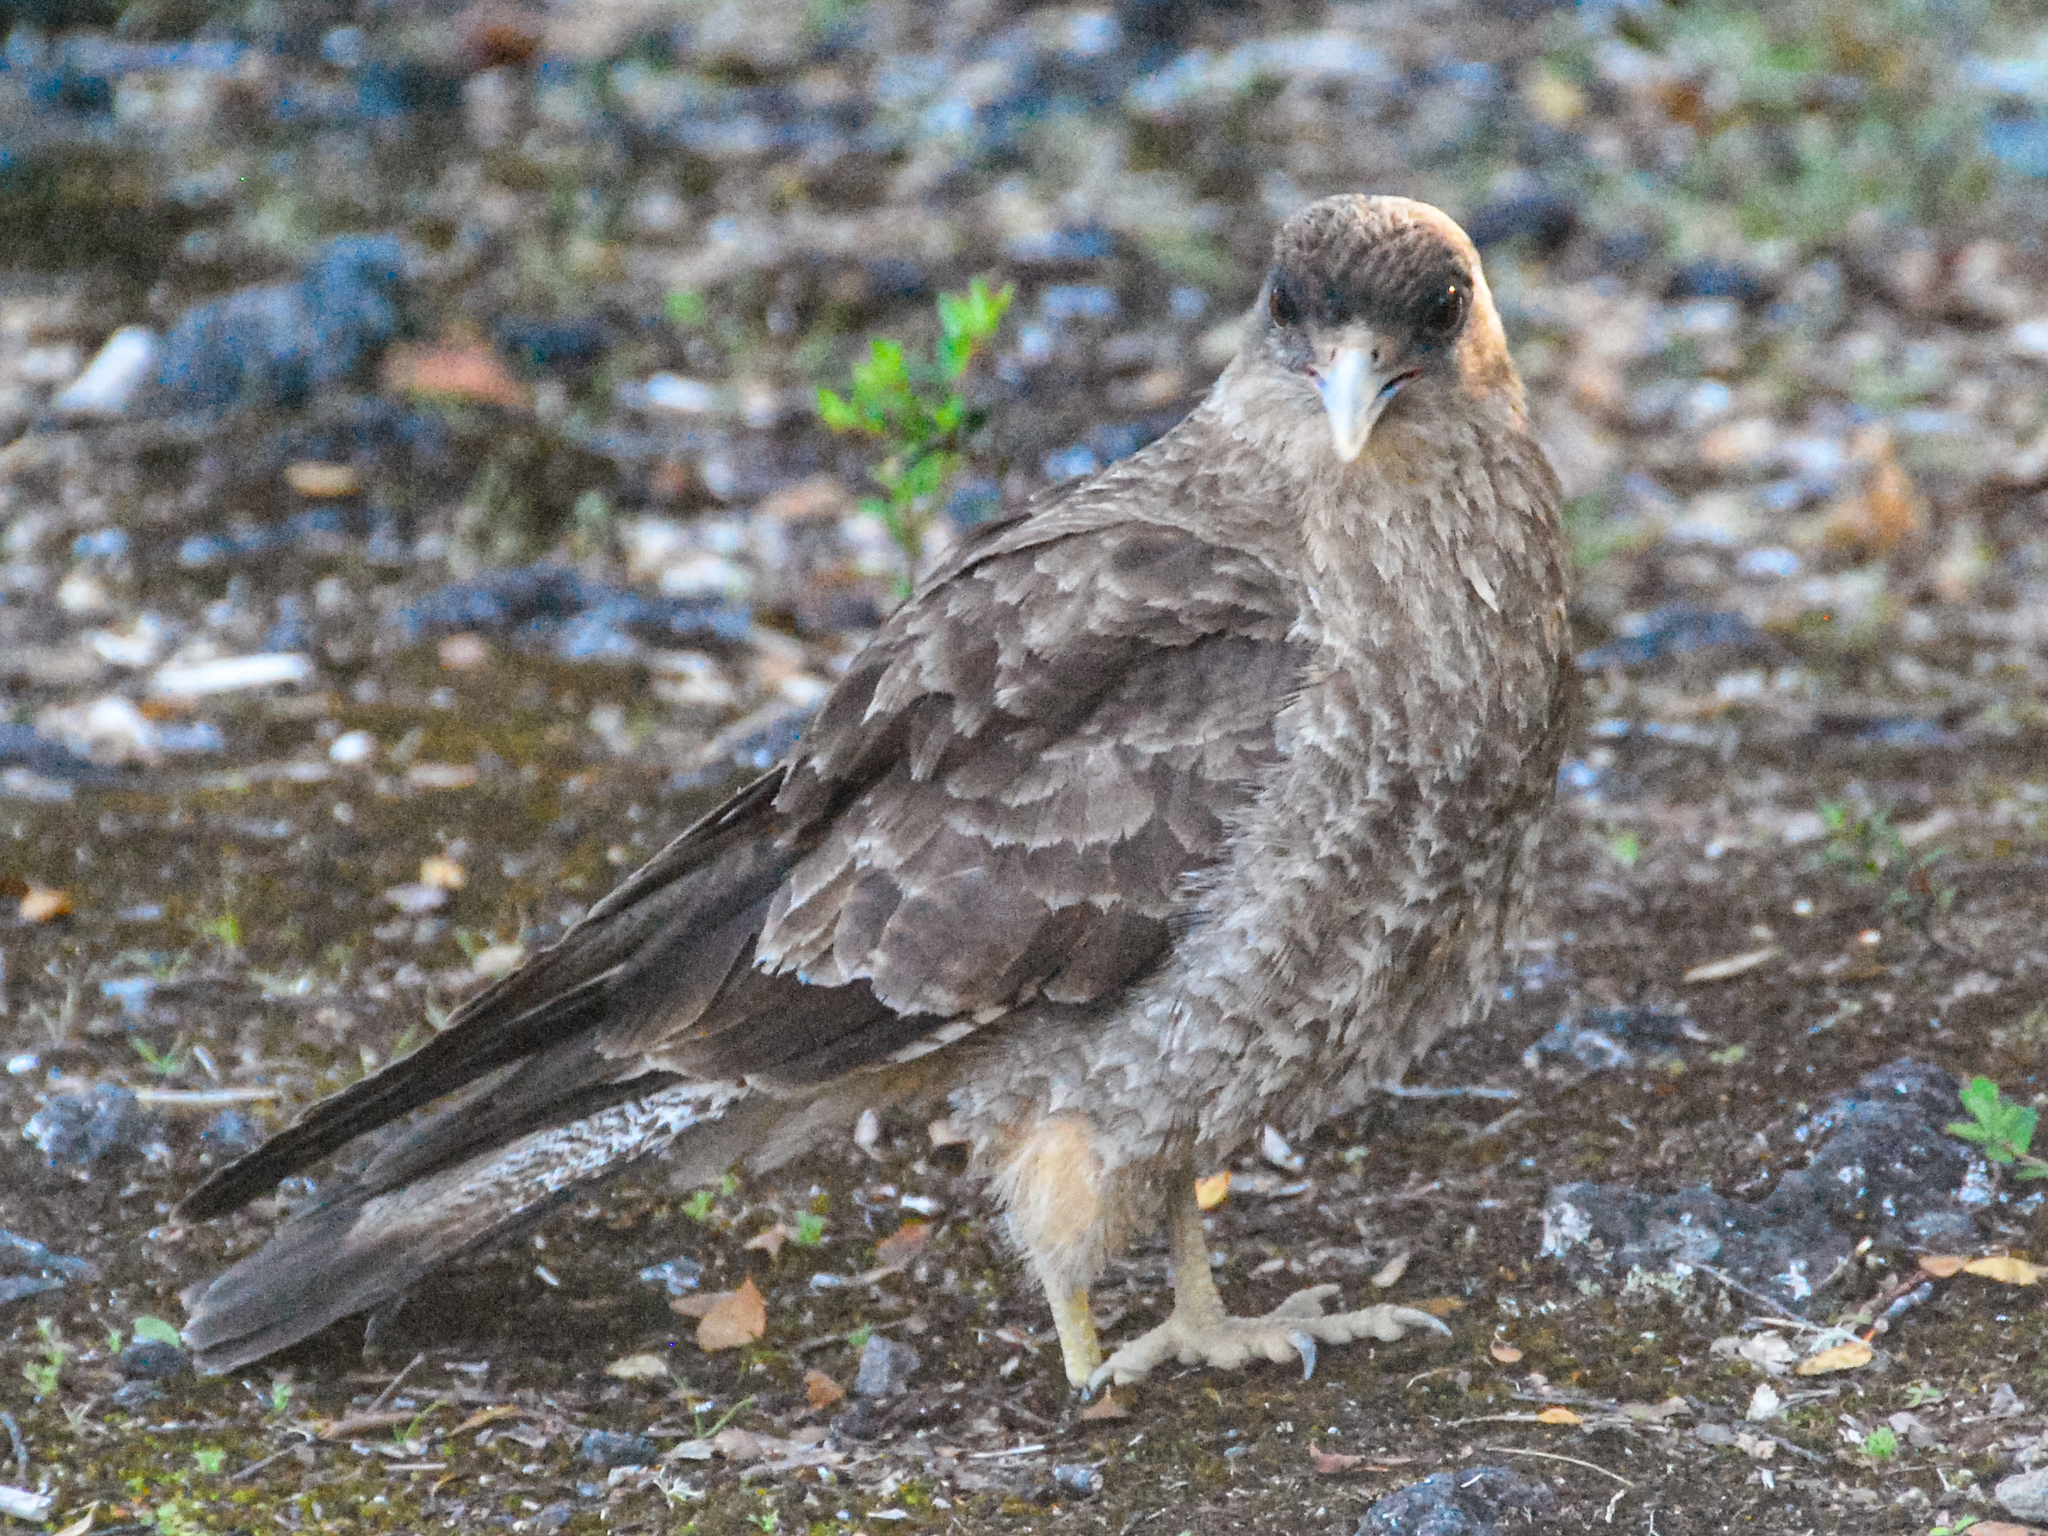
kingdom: Animalia
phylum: Chordata
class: Aves
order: Falconiformes
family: Falconidae
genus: Daptrius
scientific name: Daptrius
